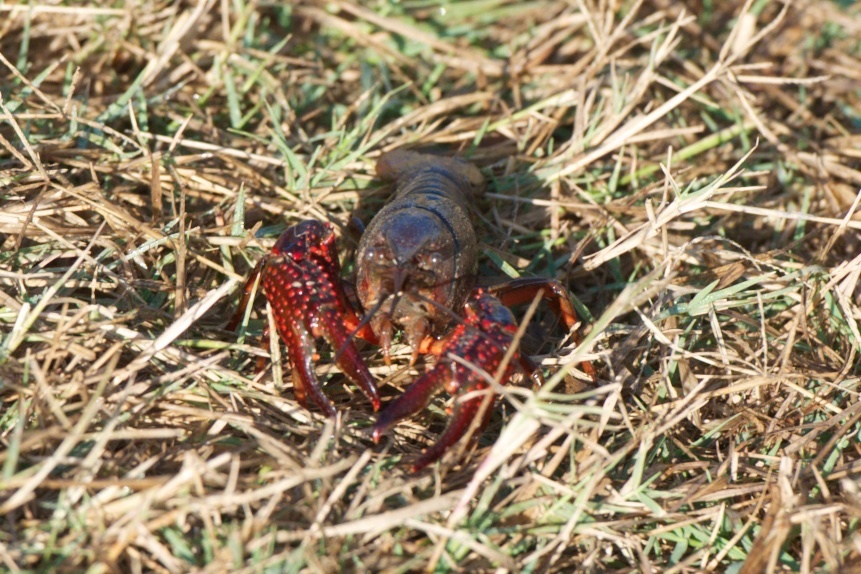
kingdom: Animalia
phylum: Arthropoda
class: Malacostraca
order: Decapoda
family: Cambaridae
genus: Procambarus
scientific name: Procambarus clarkii
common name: Red swamp crayfish
